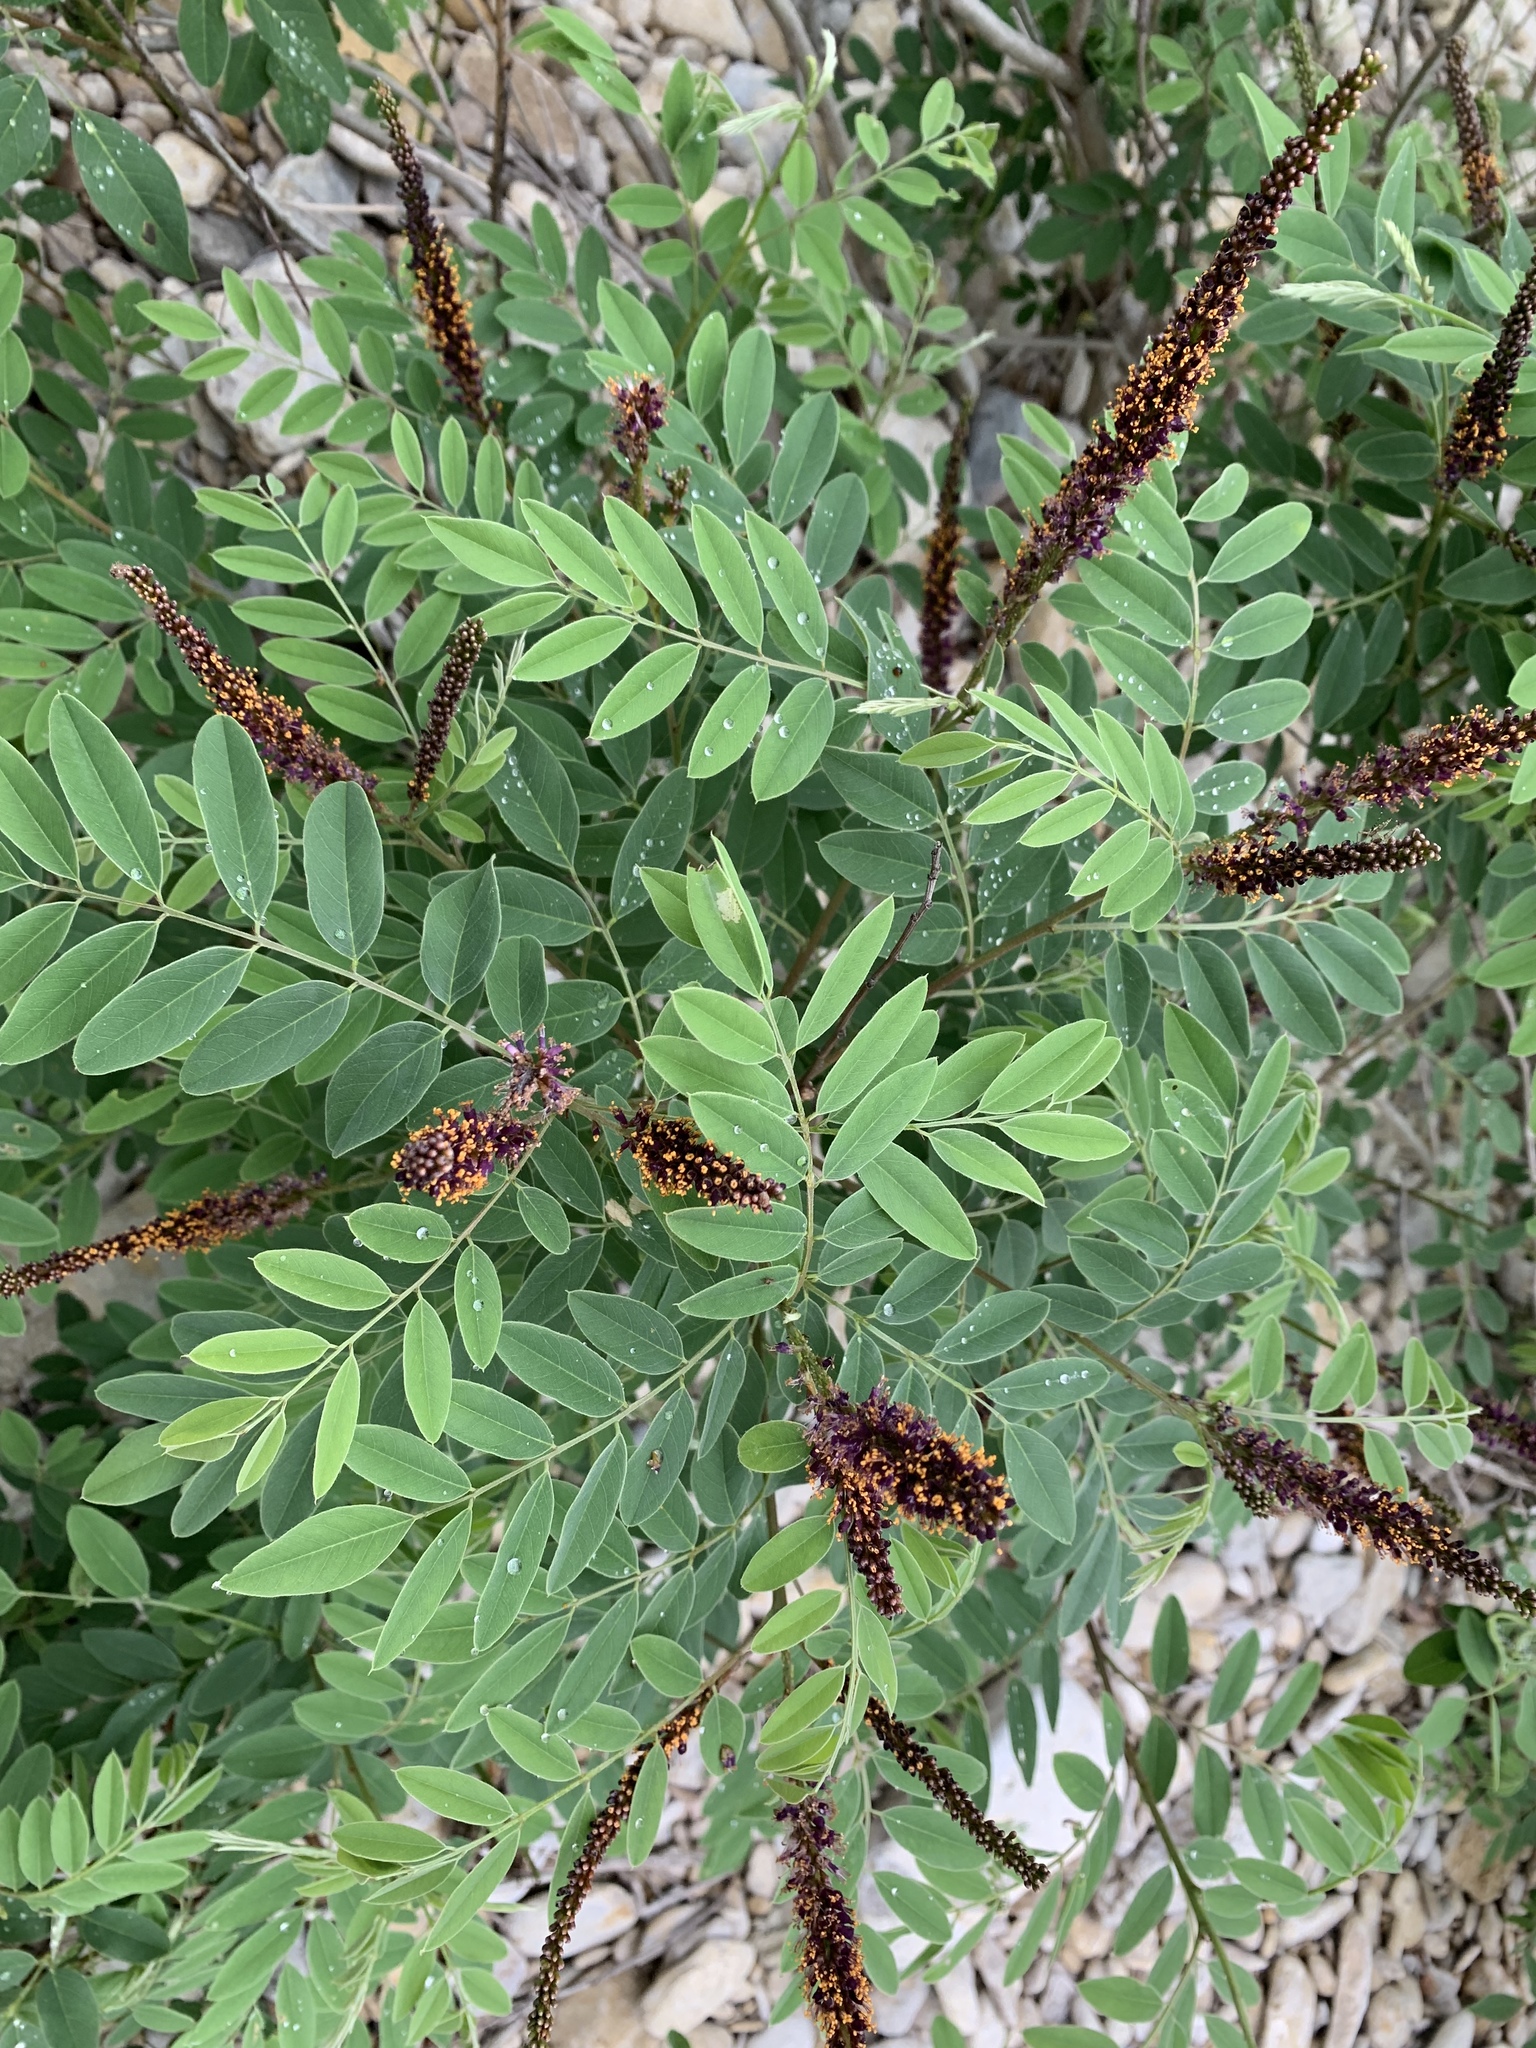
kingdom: Plantae
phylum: Tracheophyta
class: Magnoliopsida
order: Fabales
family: Fabaceae
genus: Amorpha
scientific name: Amorpha fruticosa
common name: False indigo
